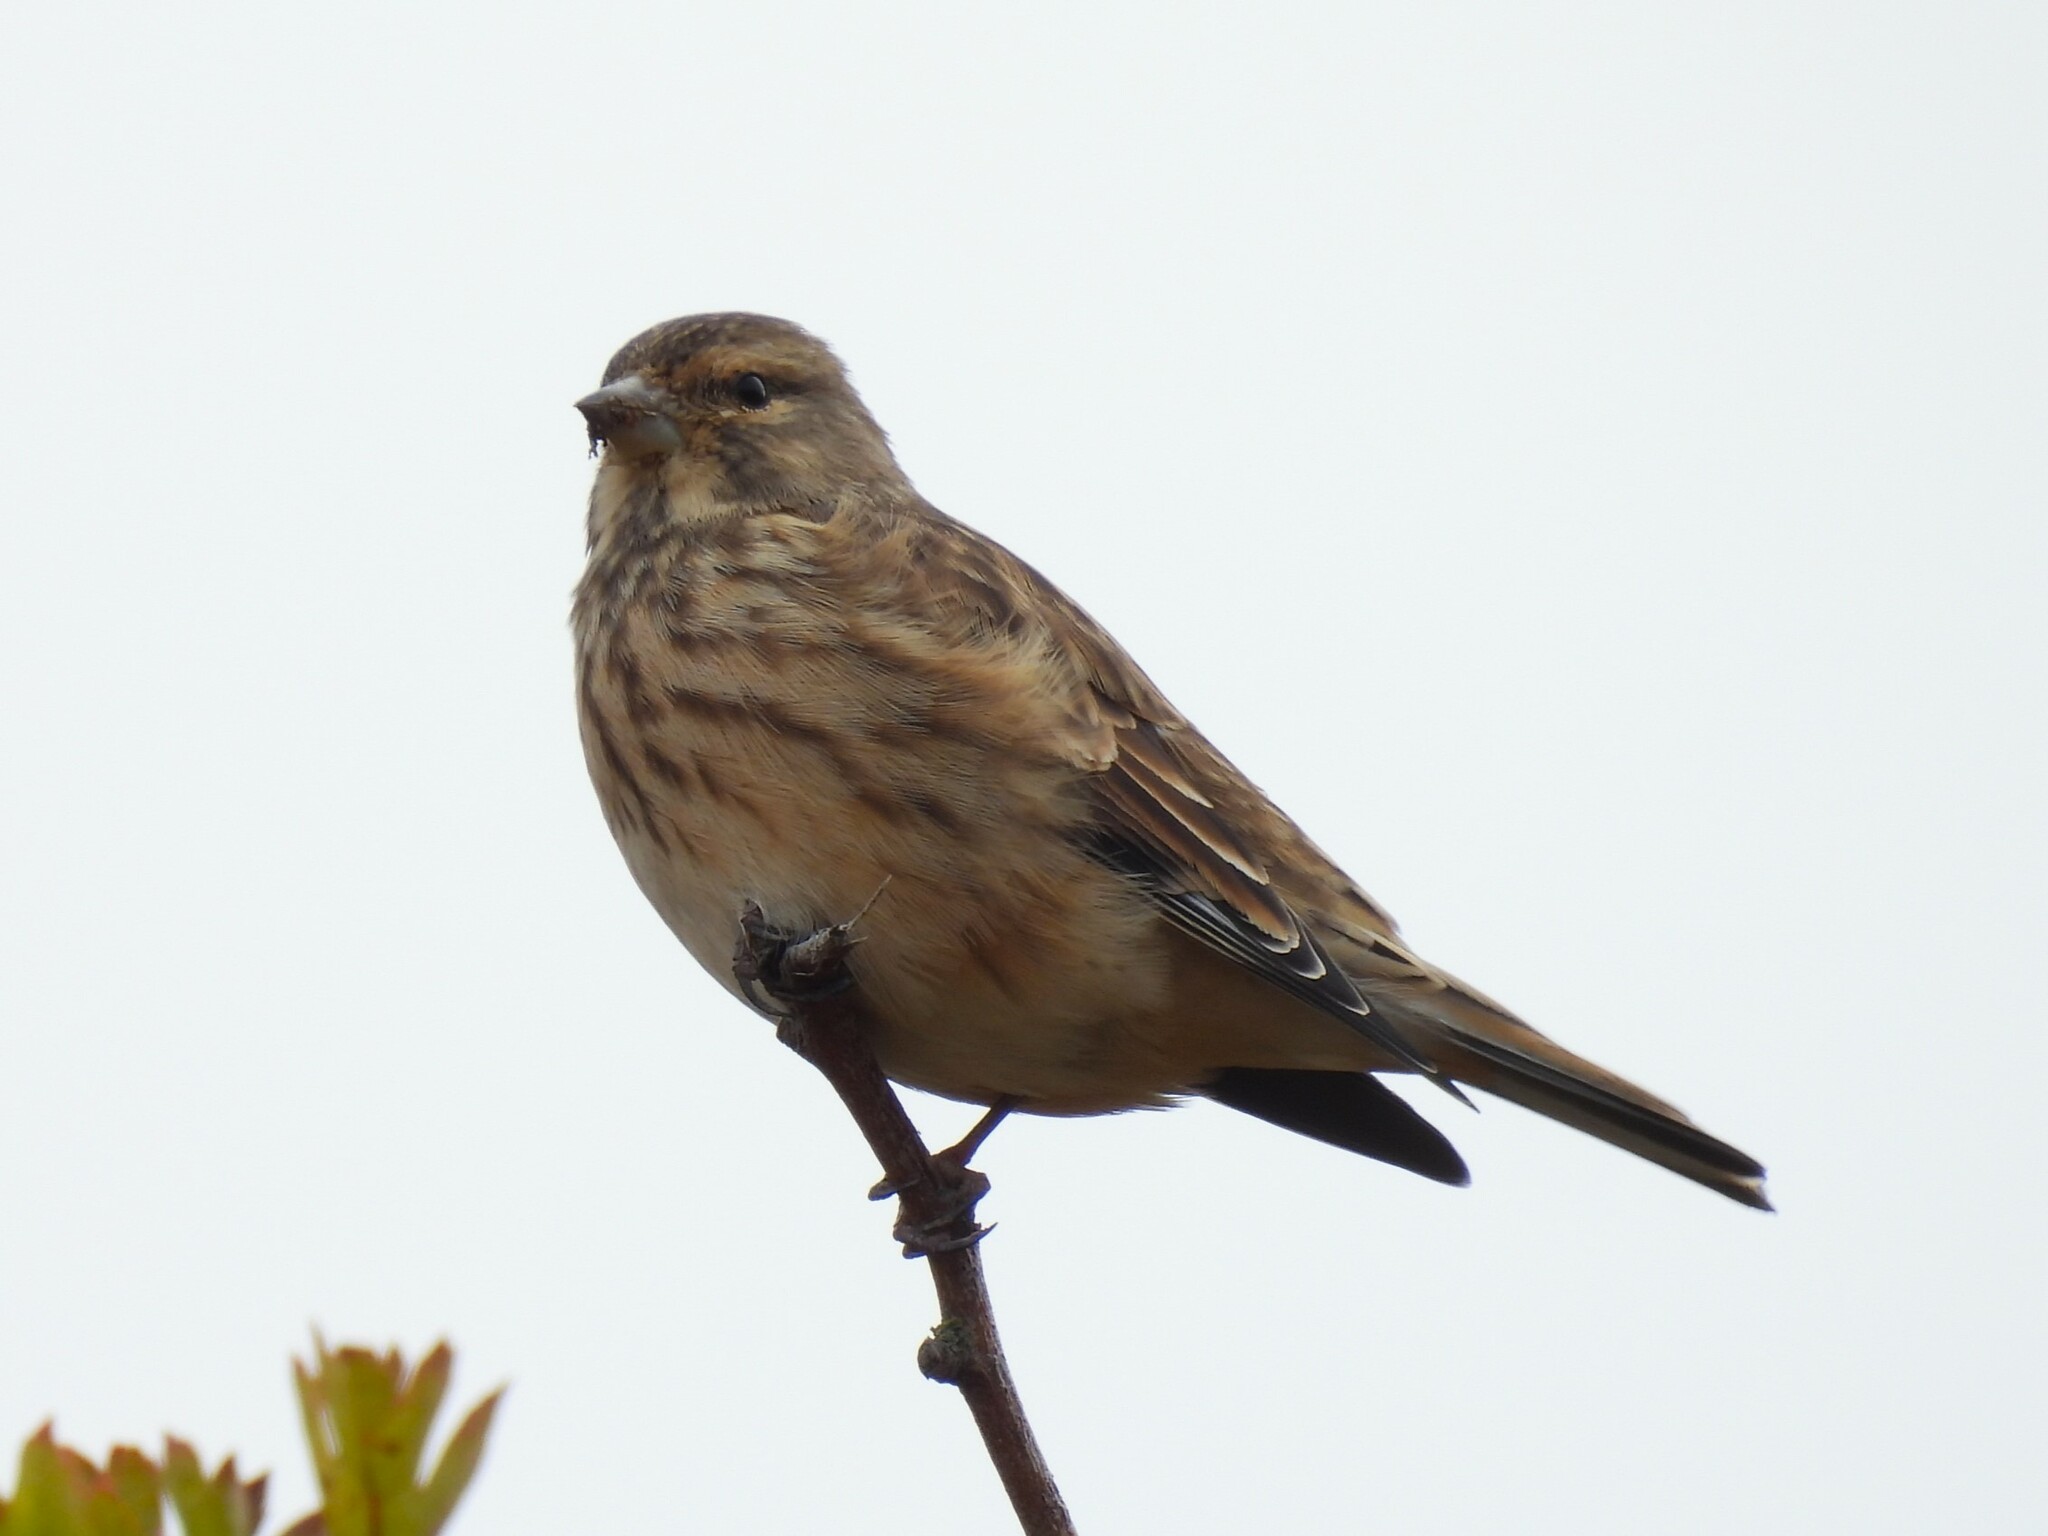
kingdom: Animalia
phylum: Chordata
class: Aves
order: Passeriformes
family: Fringillidae
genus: Linaria
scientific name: Linaria cannabina
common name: Common linnet
